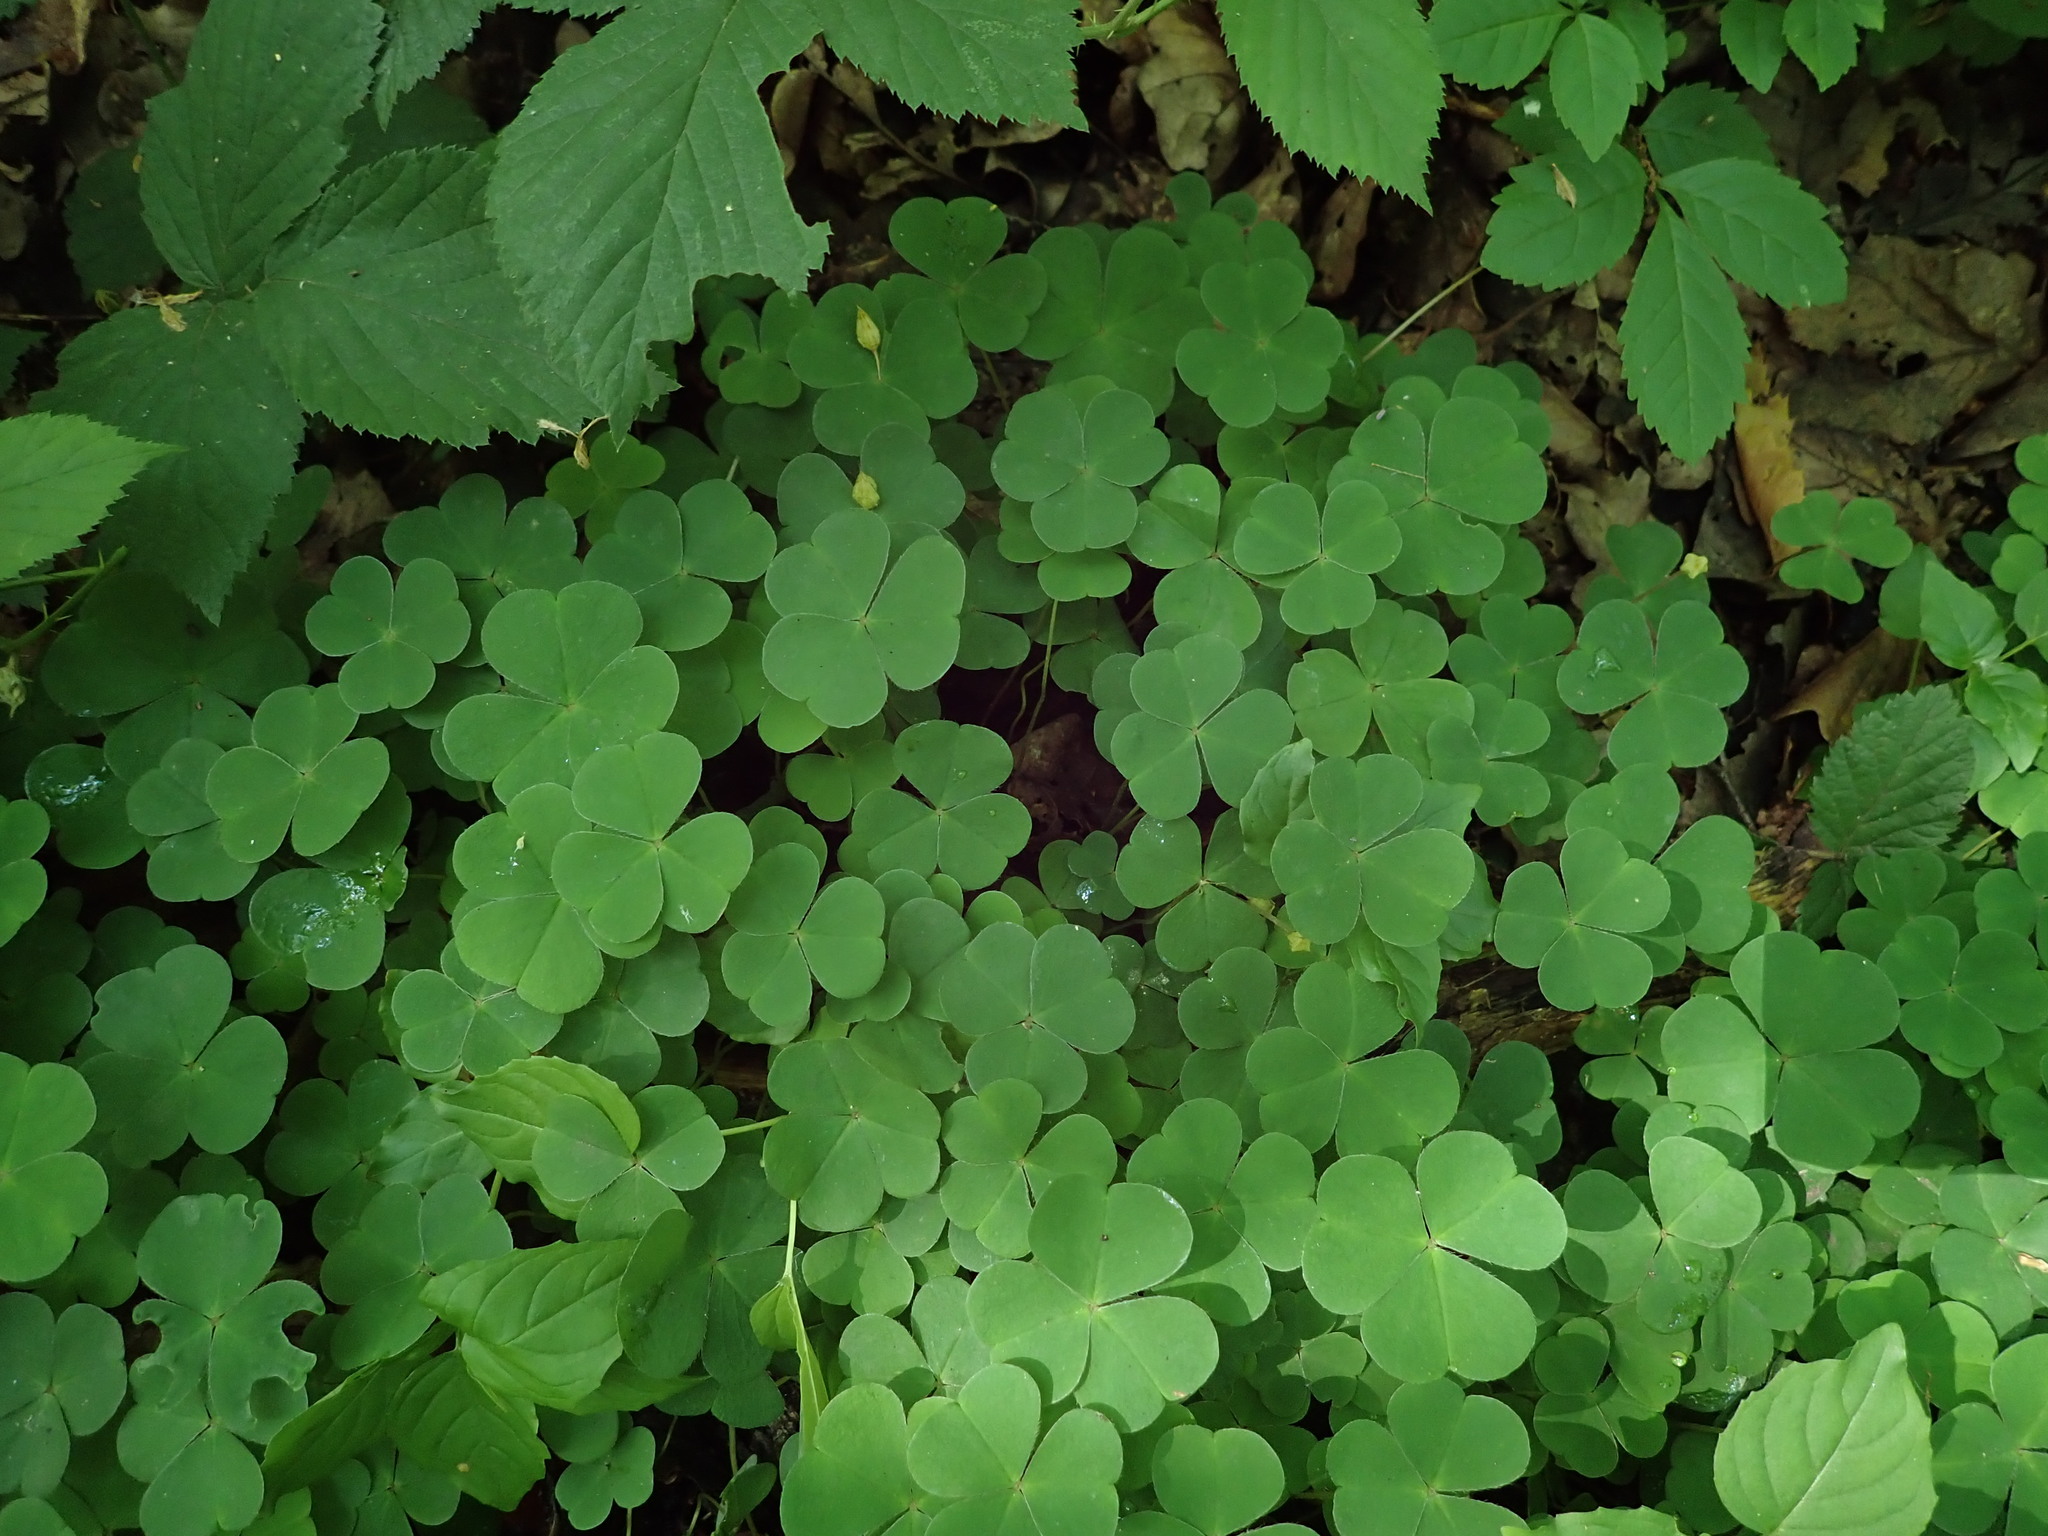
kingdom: Plantae
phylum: Tracheophyta
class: Magnoliopsida
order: Oxalidales
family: Oxalidaceae
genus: Oxalis
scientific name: Oxalis acetosella
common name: Wood-sorrel
